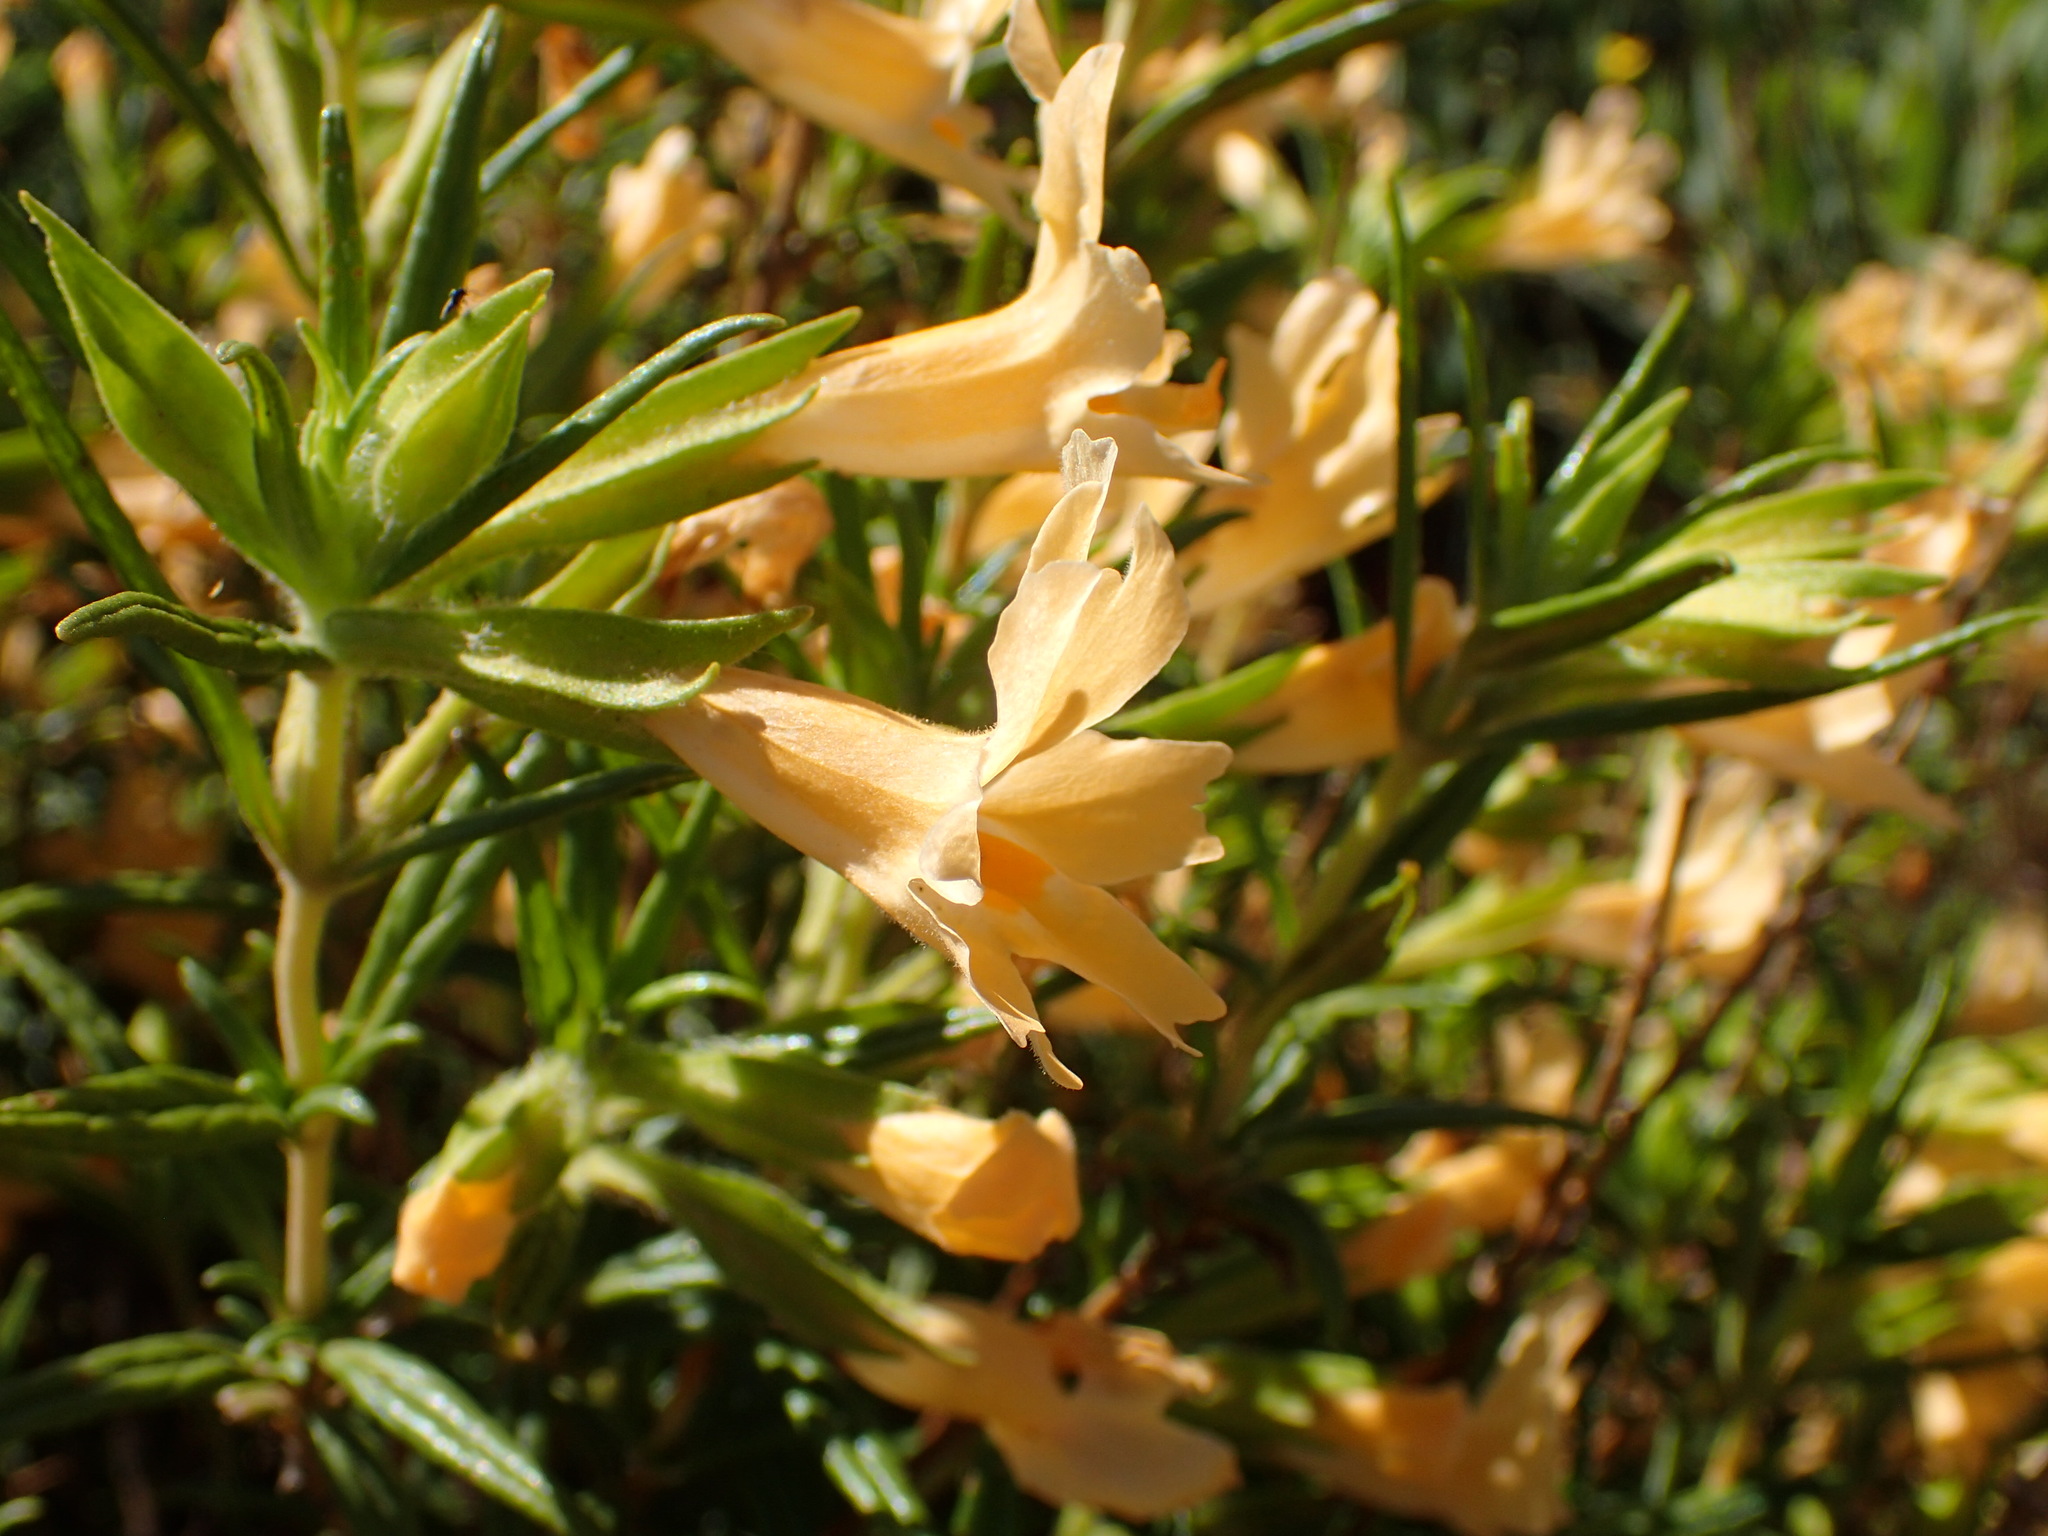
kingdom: Plantae
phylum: Tracheophyta
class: Magnoliopsida
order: Lamiales
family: Phrymaceae
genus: Diplacus
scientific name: Diplacus longiflorus
